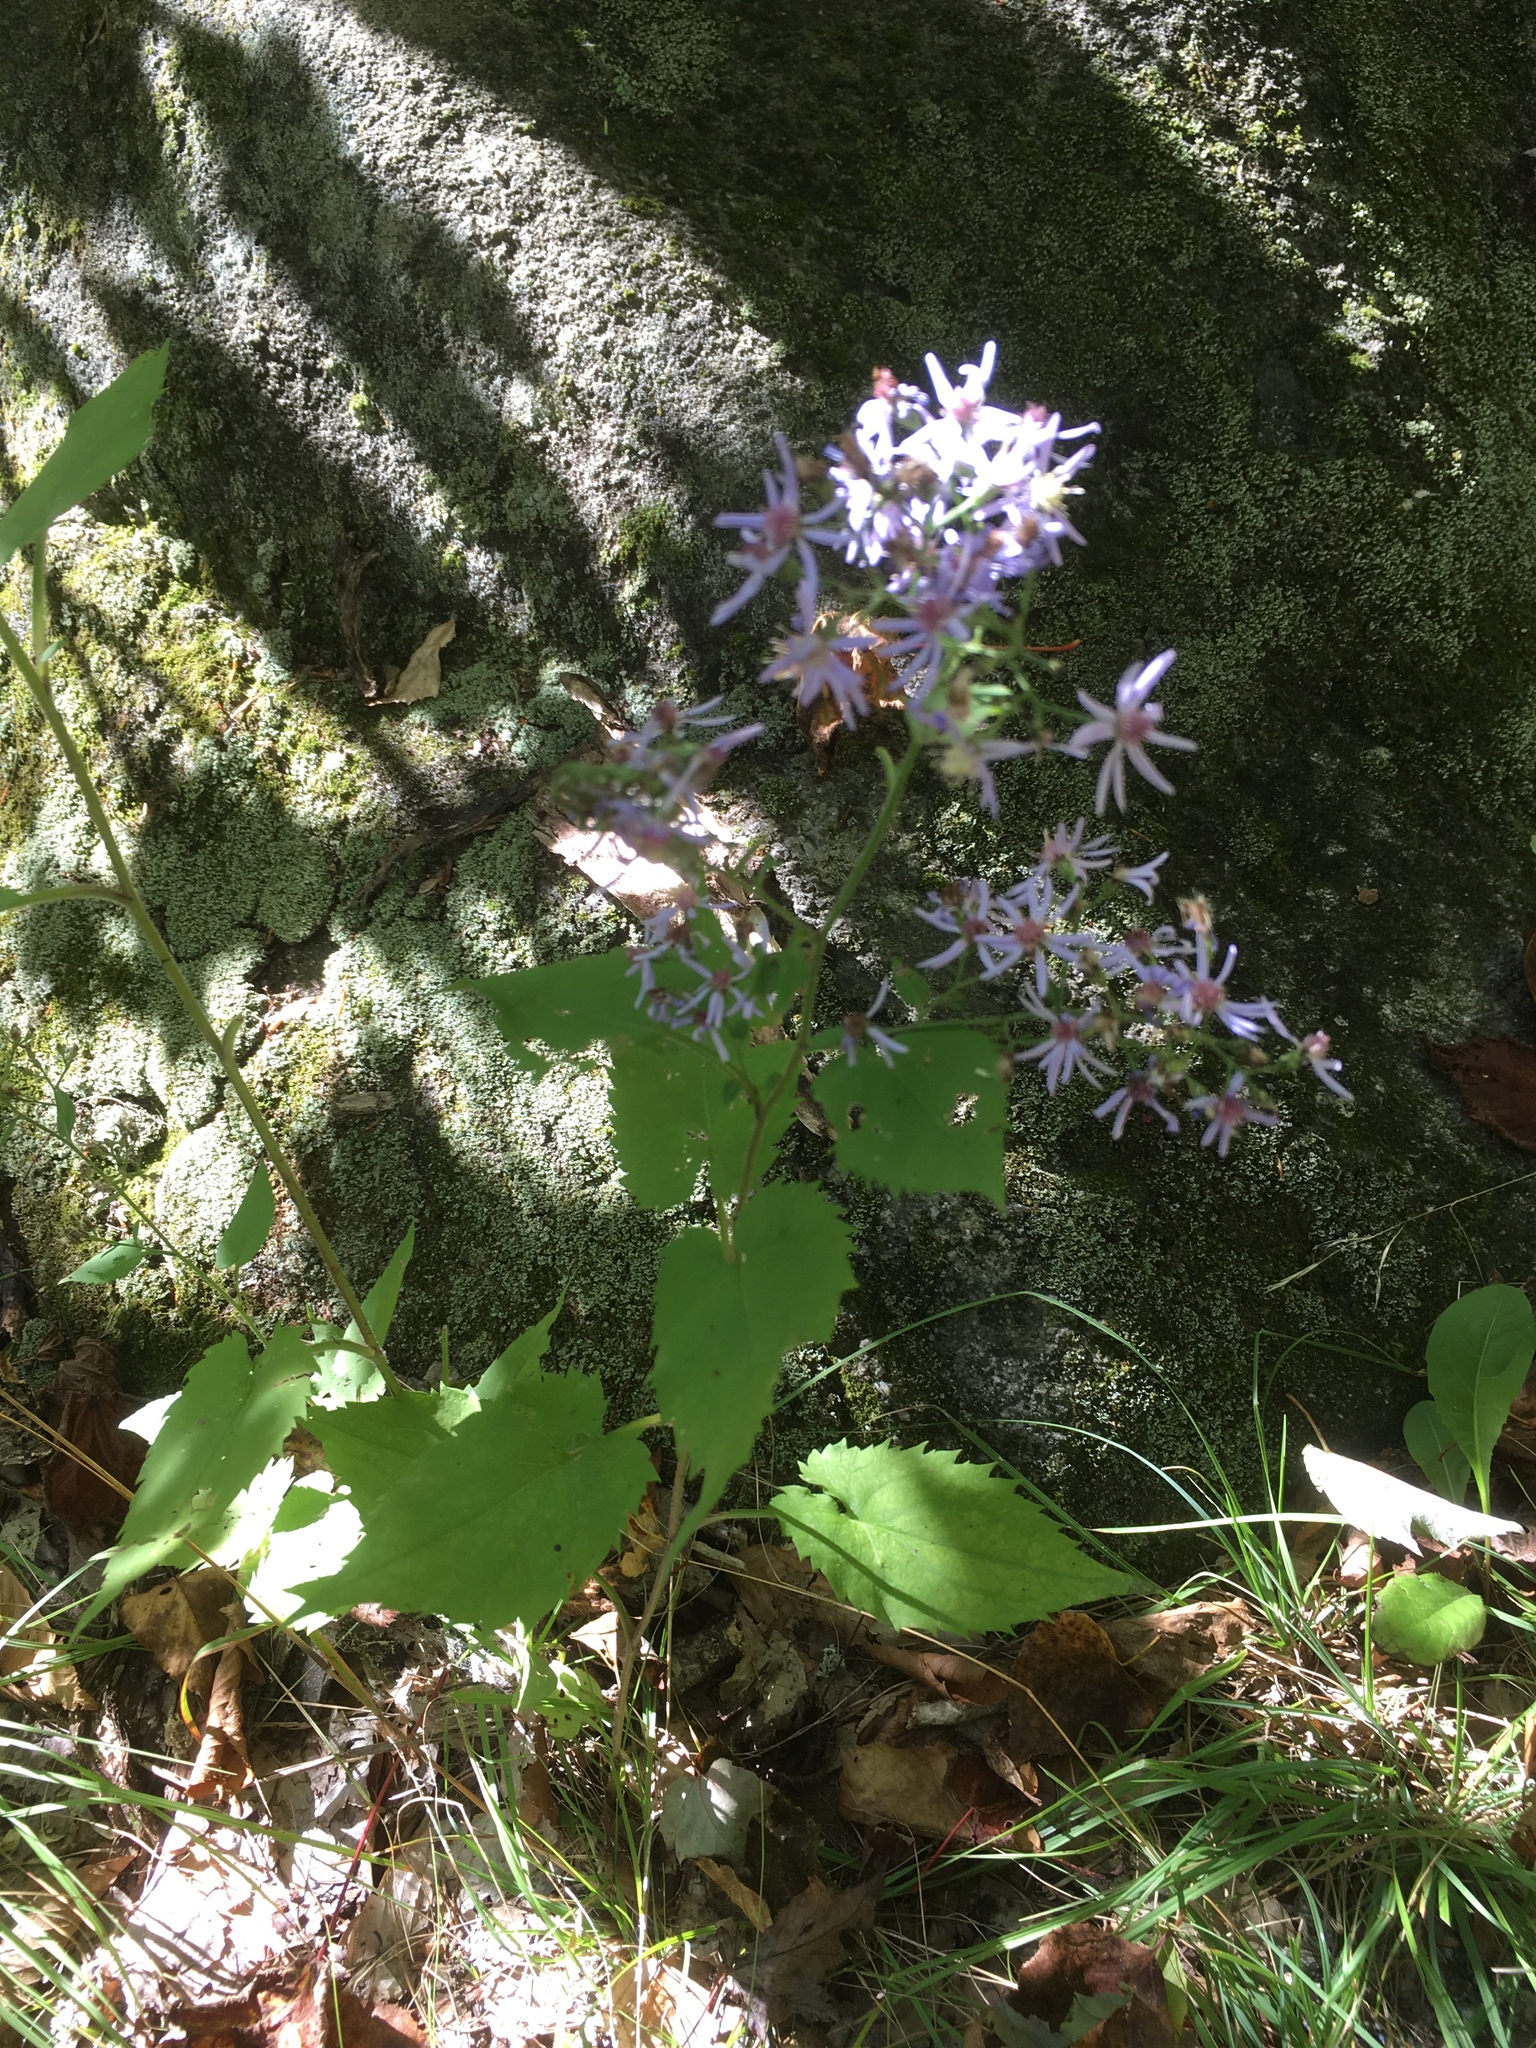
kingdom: Plantae
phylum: Tracheophyta
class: Magnoliopsida
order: Asterales
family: Asteraceae
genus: Symphyotrichum
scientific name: Symphyotrichum cordifolium
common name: Beeweed
